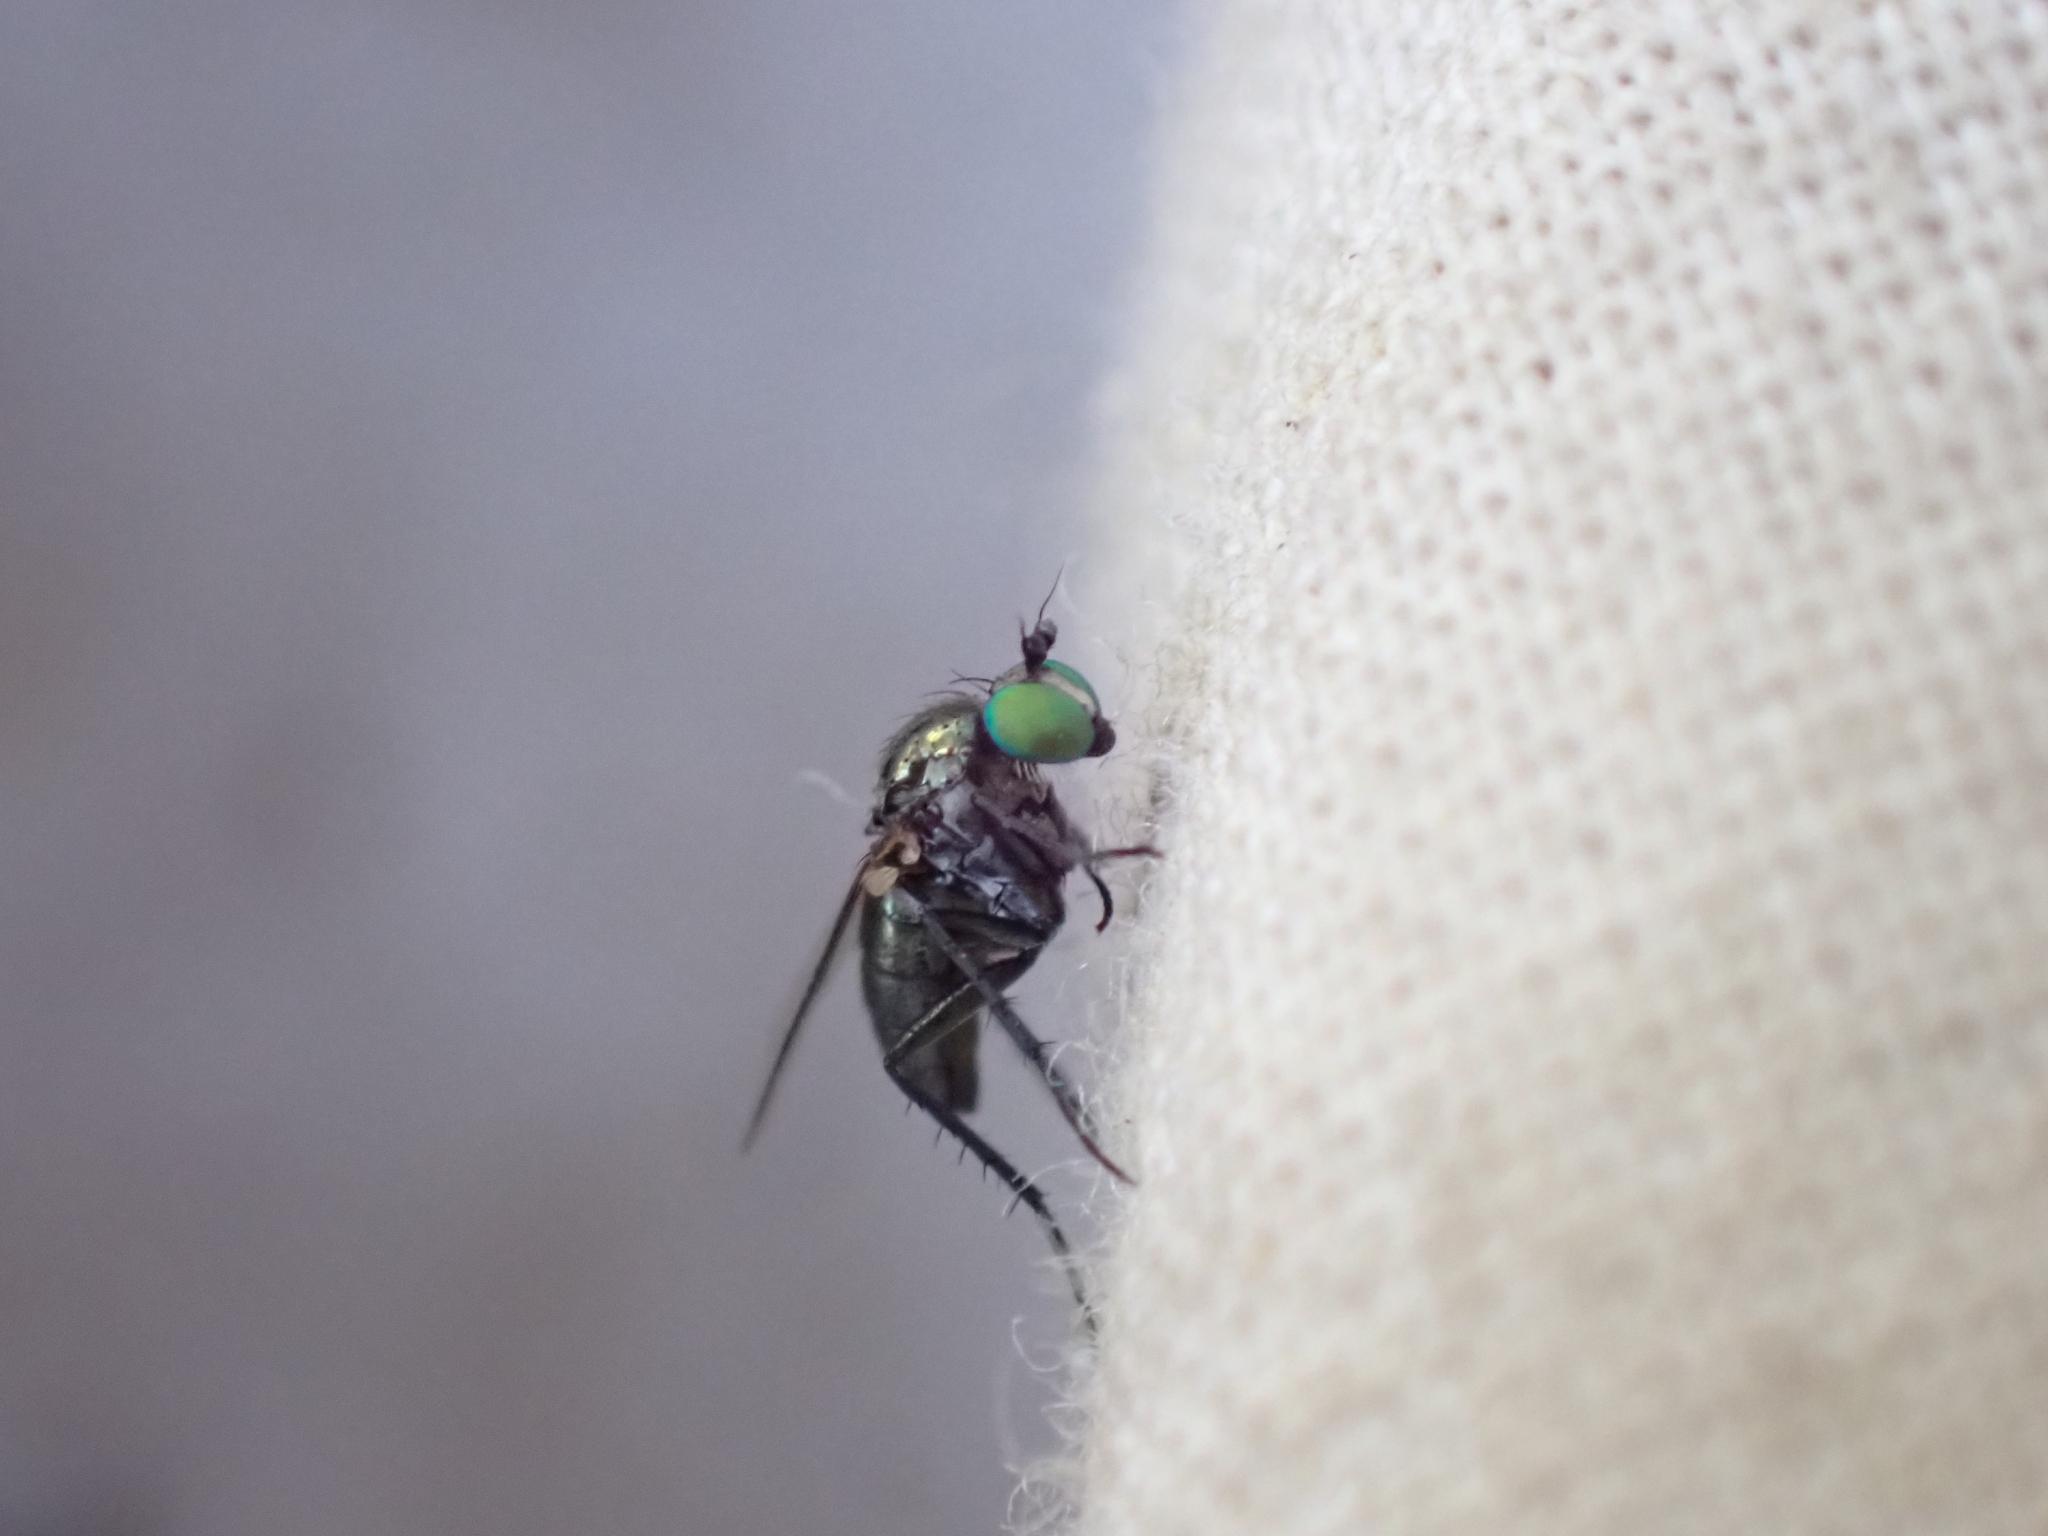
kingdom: Animalia
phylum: Arthropoda
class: Insecta
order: Diptera
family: Dolichopodidae
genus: Hercostomus
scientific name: Hercostomus unicolor
